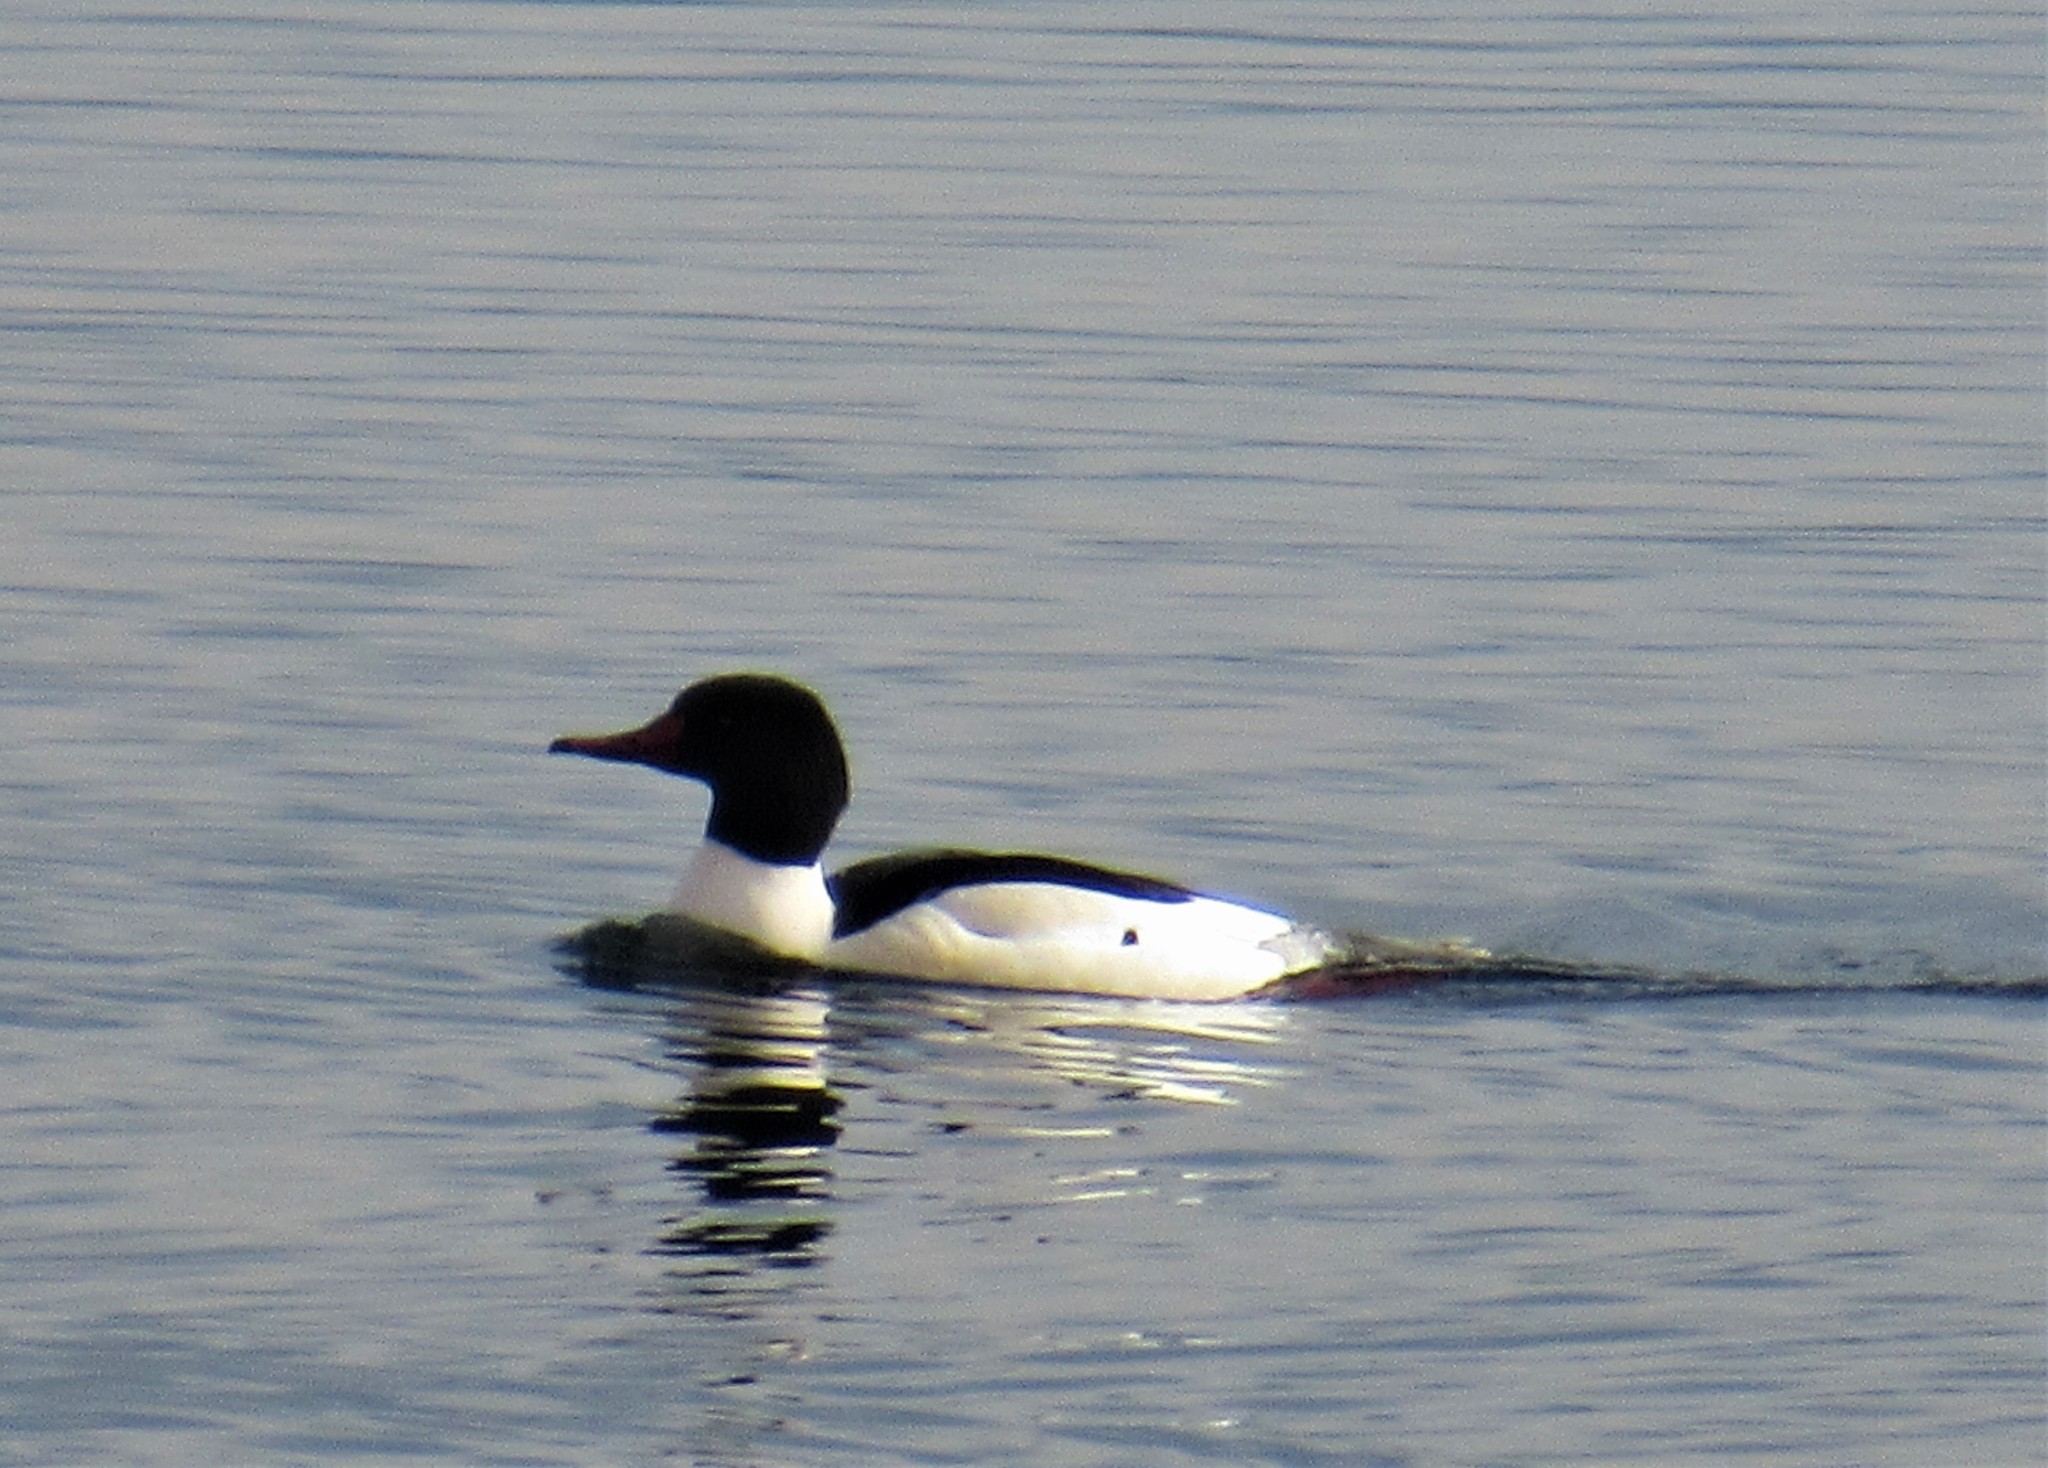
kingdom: Animalia
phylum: Chordata
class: Aves
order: Anseriformes
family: Anatidae
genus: Mergus
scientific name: Mergus merganser
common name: Common merganser
